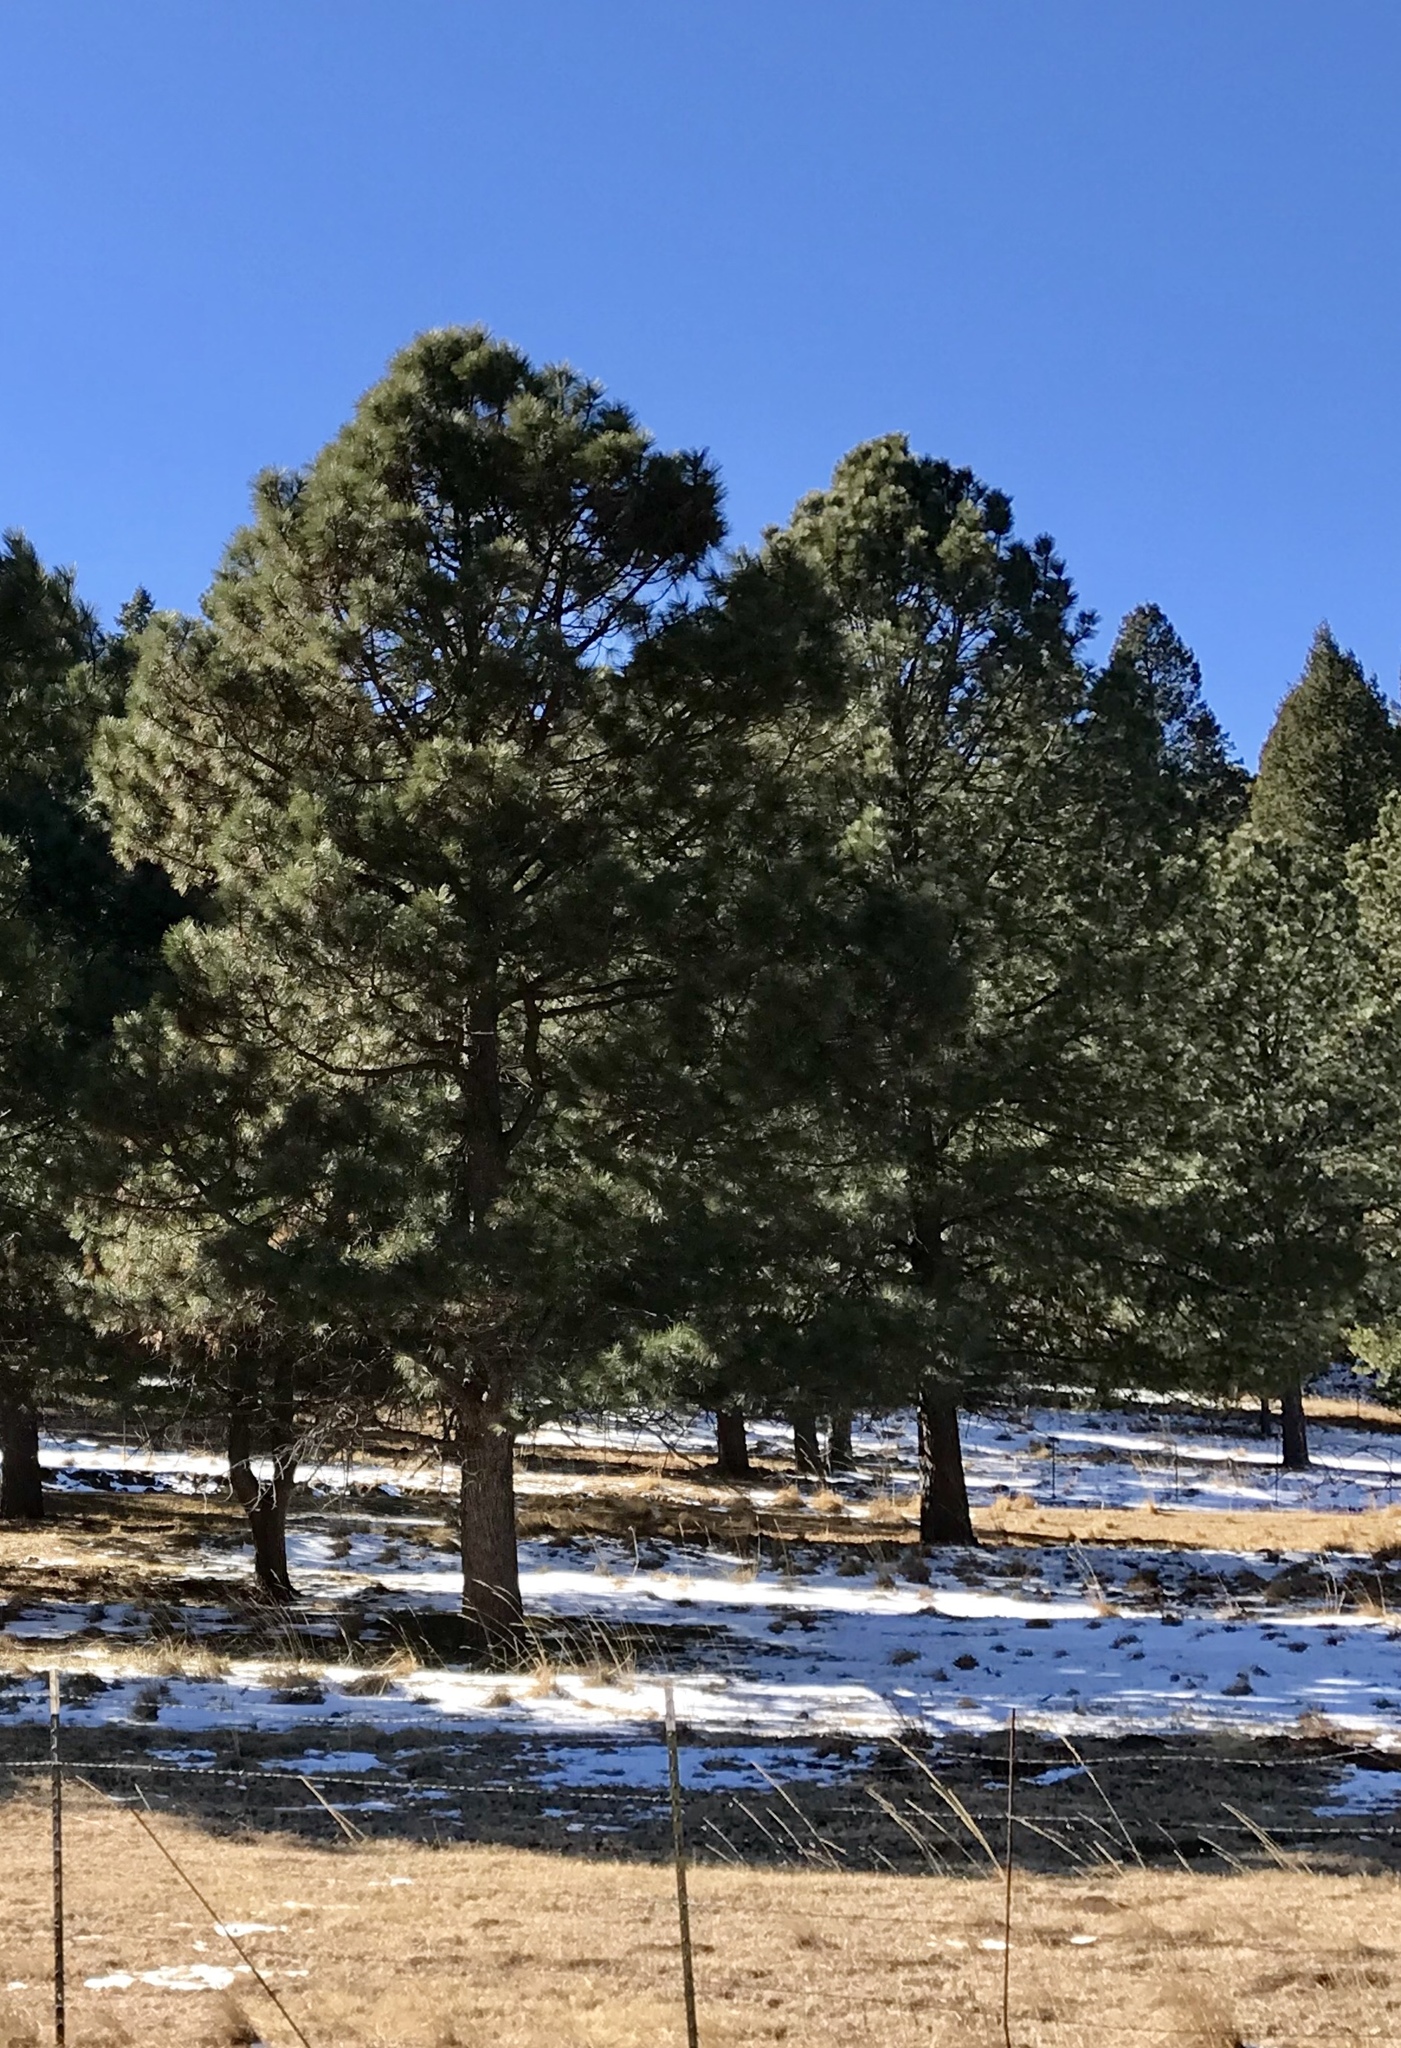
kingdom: Plantae
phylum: Tracheophyta
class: Pinopsida
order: Pinales
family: Pinaceae
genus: Pinus
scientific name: Pinus ponderosa
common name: Western yellow-pine
